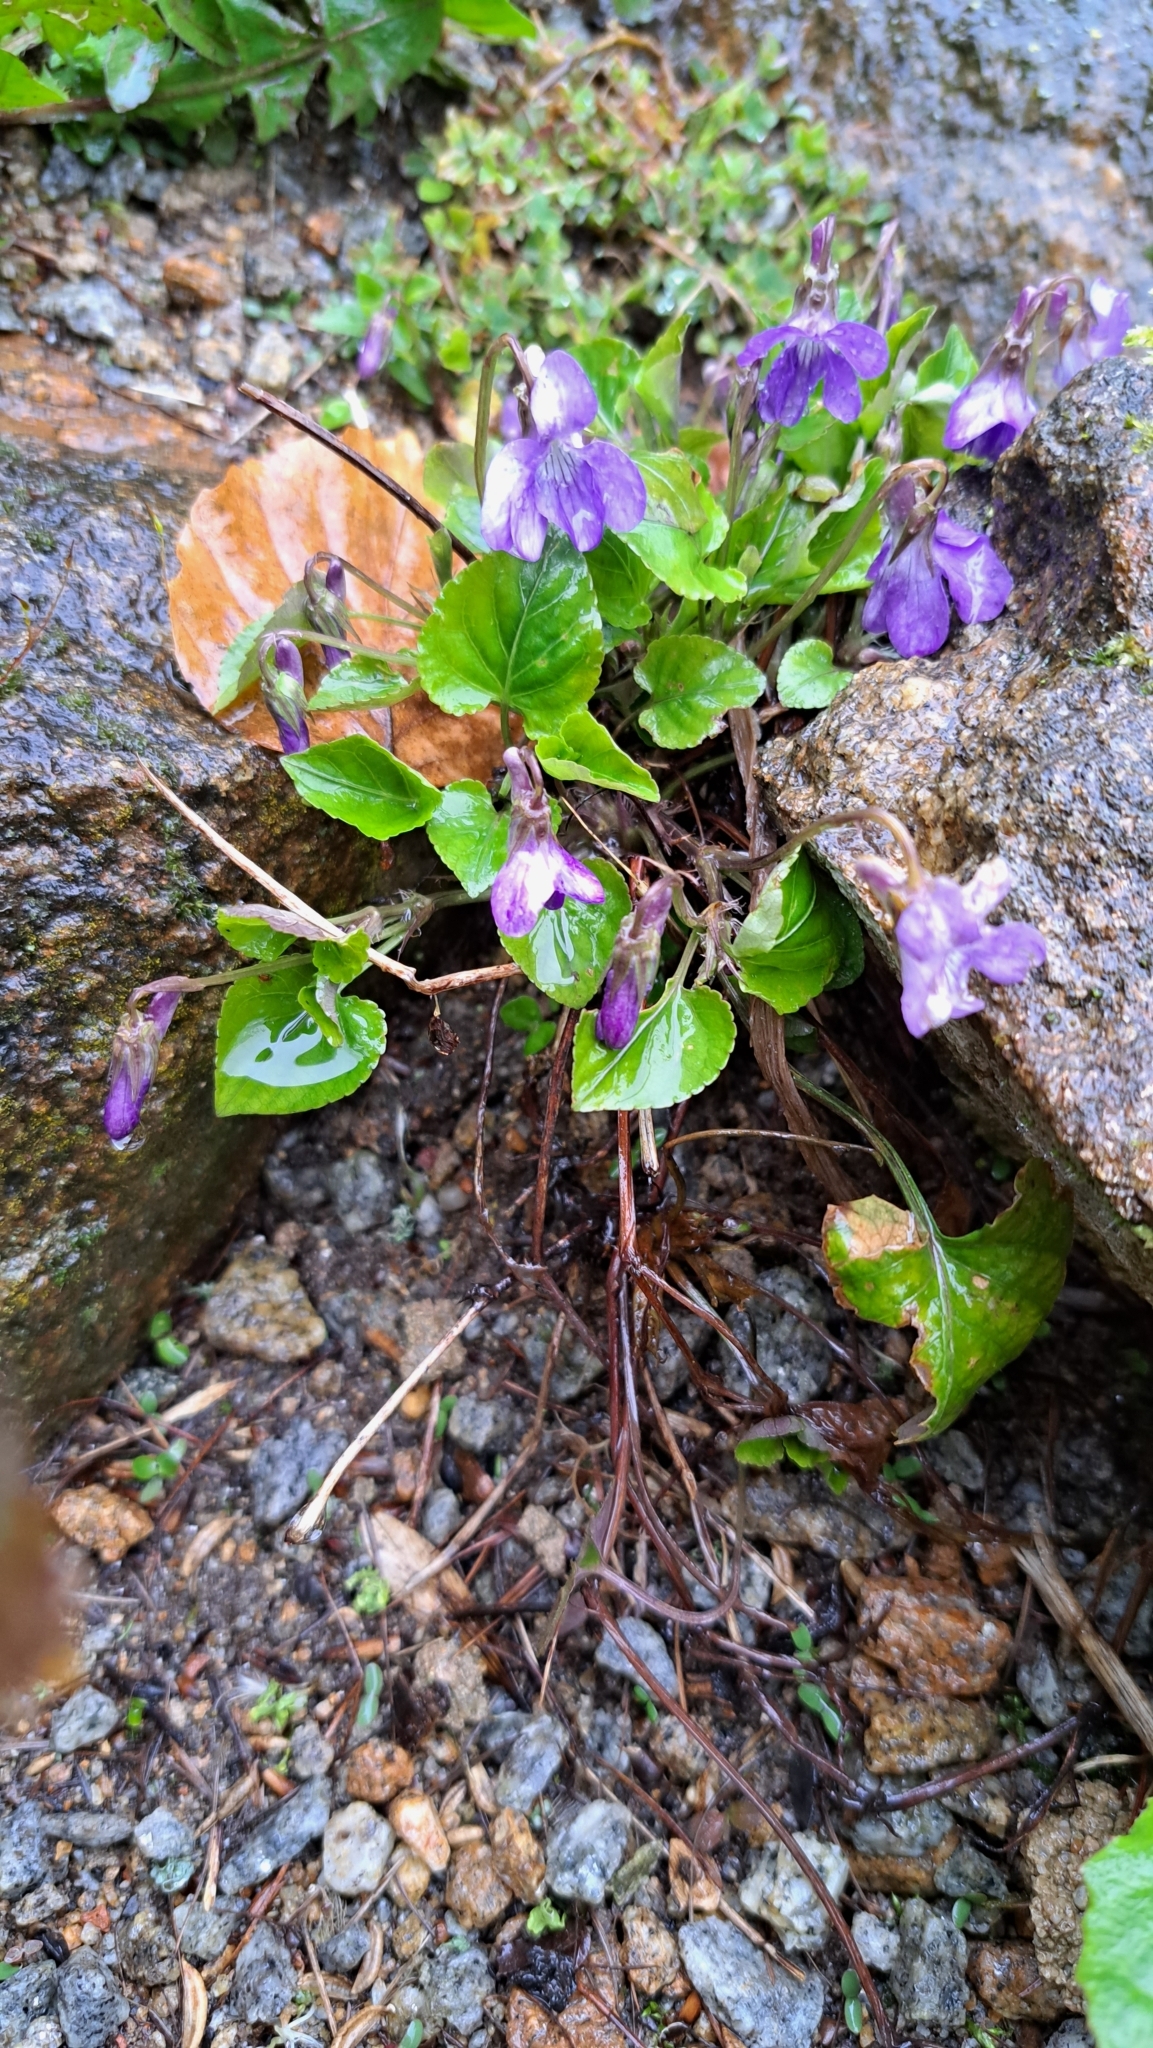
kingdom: Plantae
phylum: Tracheophyta
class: Magnoliopsida
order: Malpighiales
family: Violaceae
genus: Viola
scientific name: Viola reichenbachiana
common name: Early dog-violet
